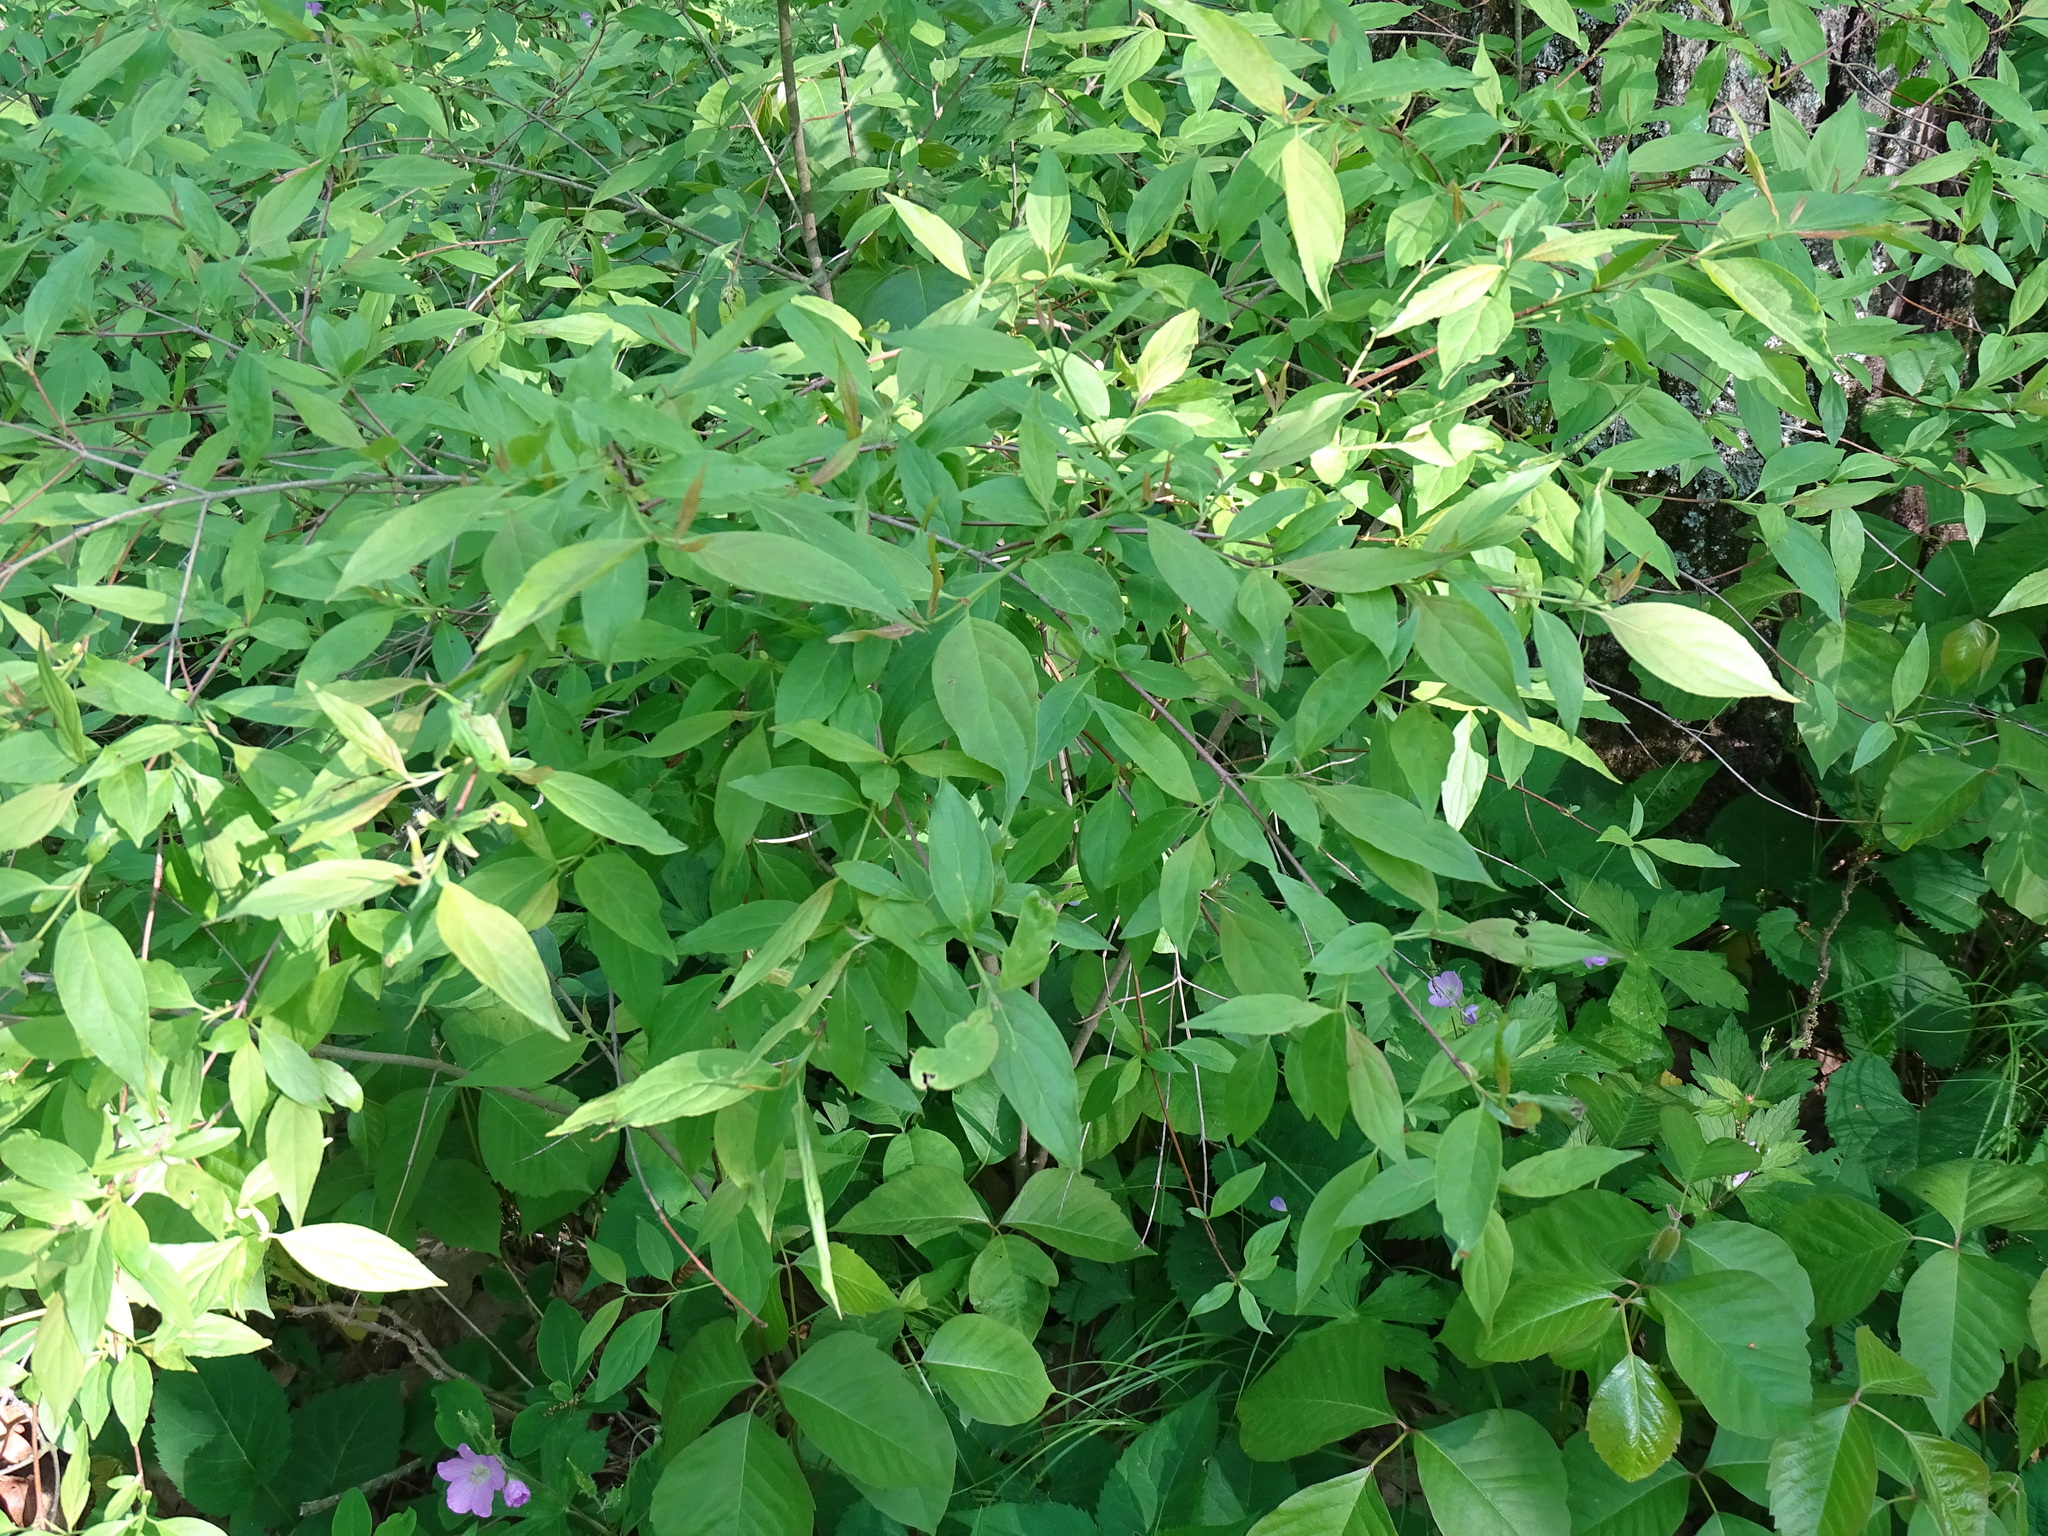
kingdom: Plantae
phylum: Tracheophyta
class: Magnoliopsida
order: Cornales
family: Cornaceae
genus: Cornus
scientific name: Cornus racemosa
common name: Panicled dogwood
